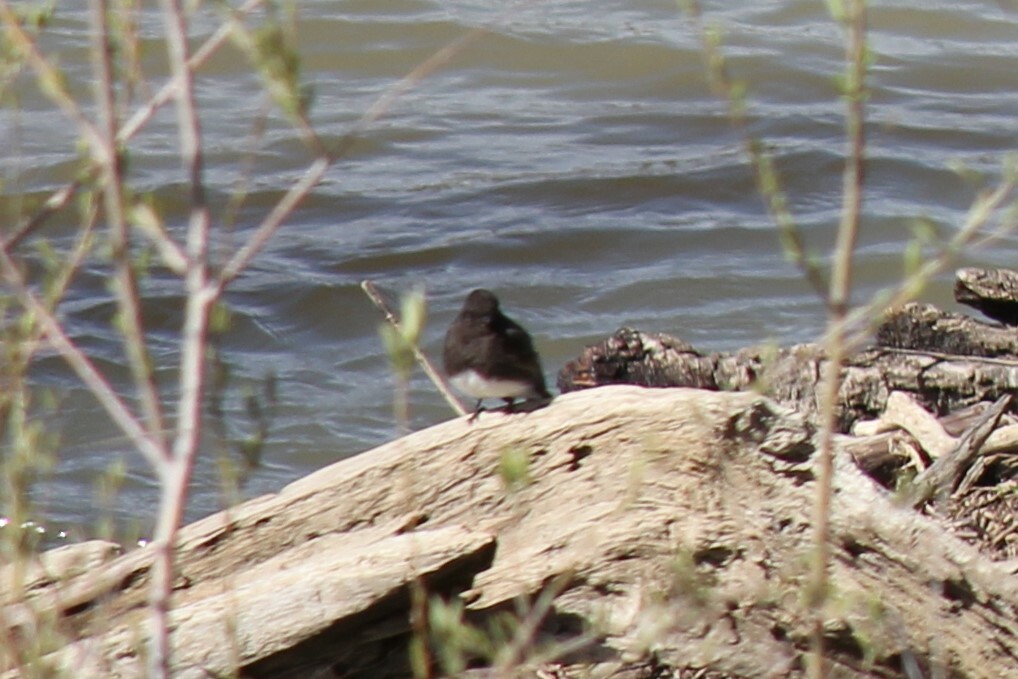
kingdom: Animalia
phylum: Chordata
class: Aves
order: Passeriformes
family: Tyrannidae
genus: Sayornis
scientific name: Sayornis nigricans
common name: Black phoebe
